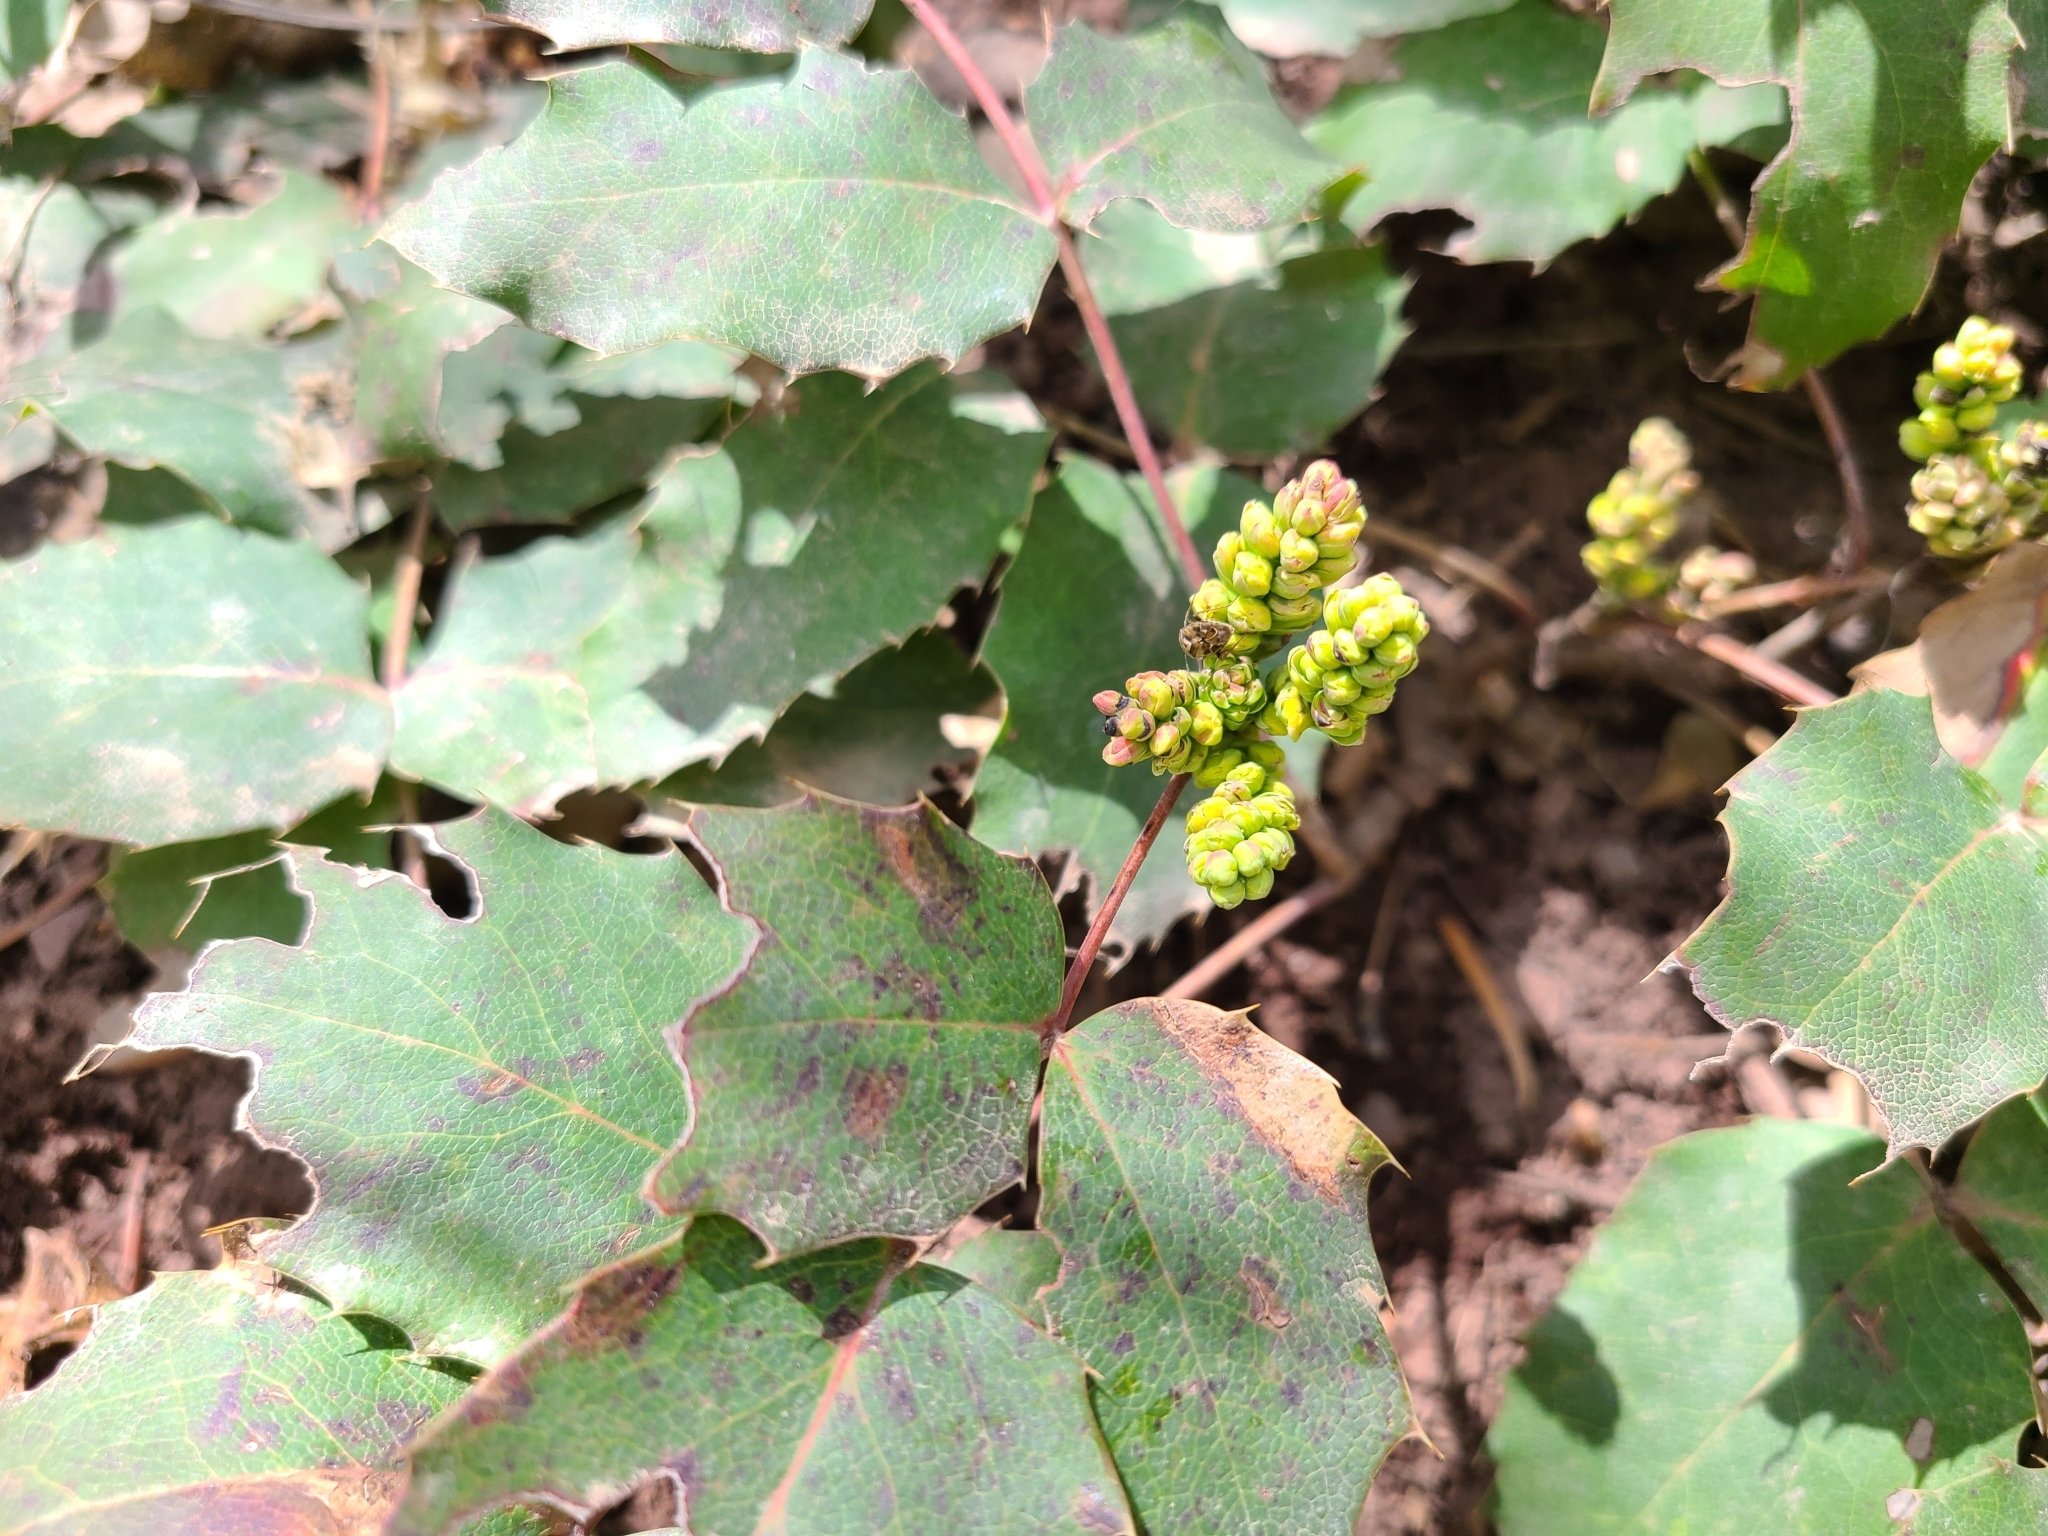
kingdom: Plantae
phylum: Tracheophyta
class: Magnoliopsida
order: Ranunculales
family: Berberidaceae
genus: Mahonia
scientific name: Mahonia repens
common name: Creeping oregon-grape
